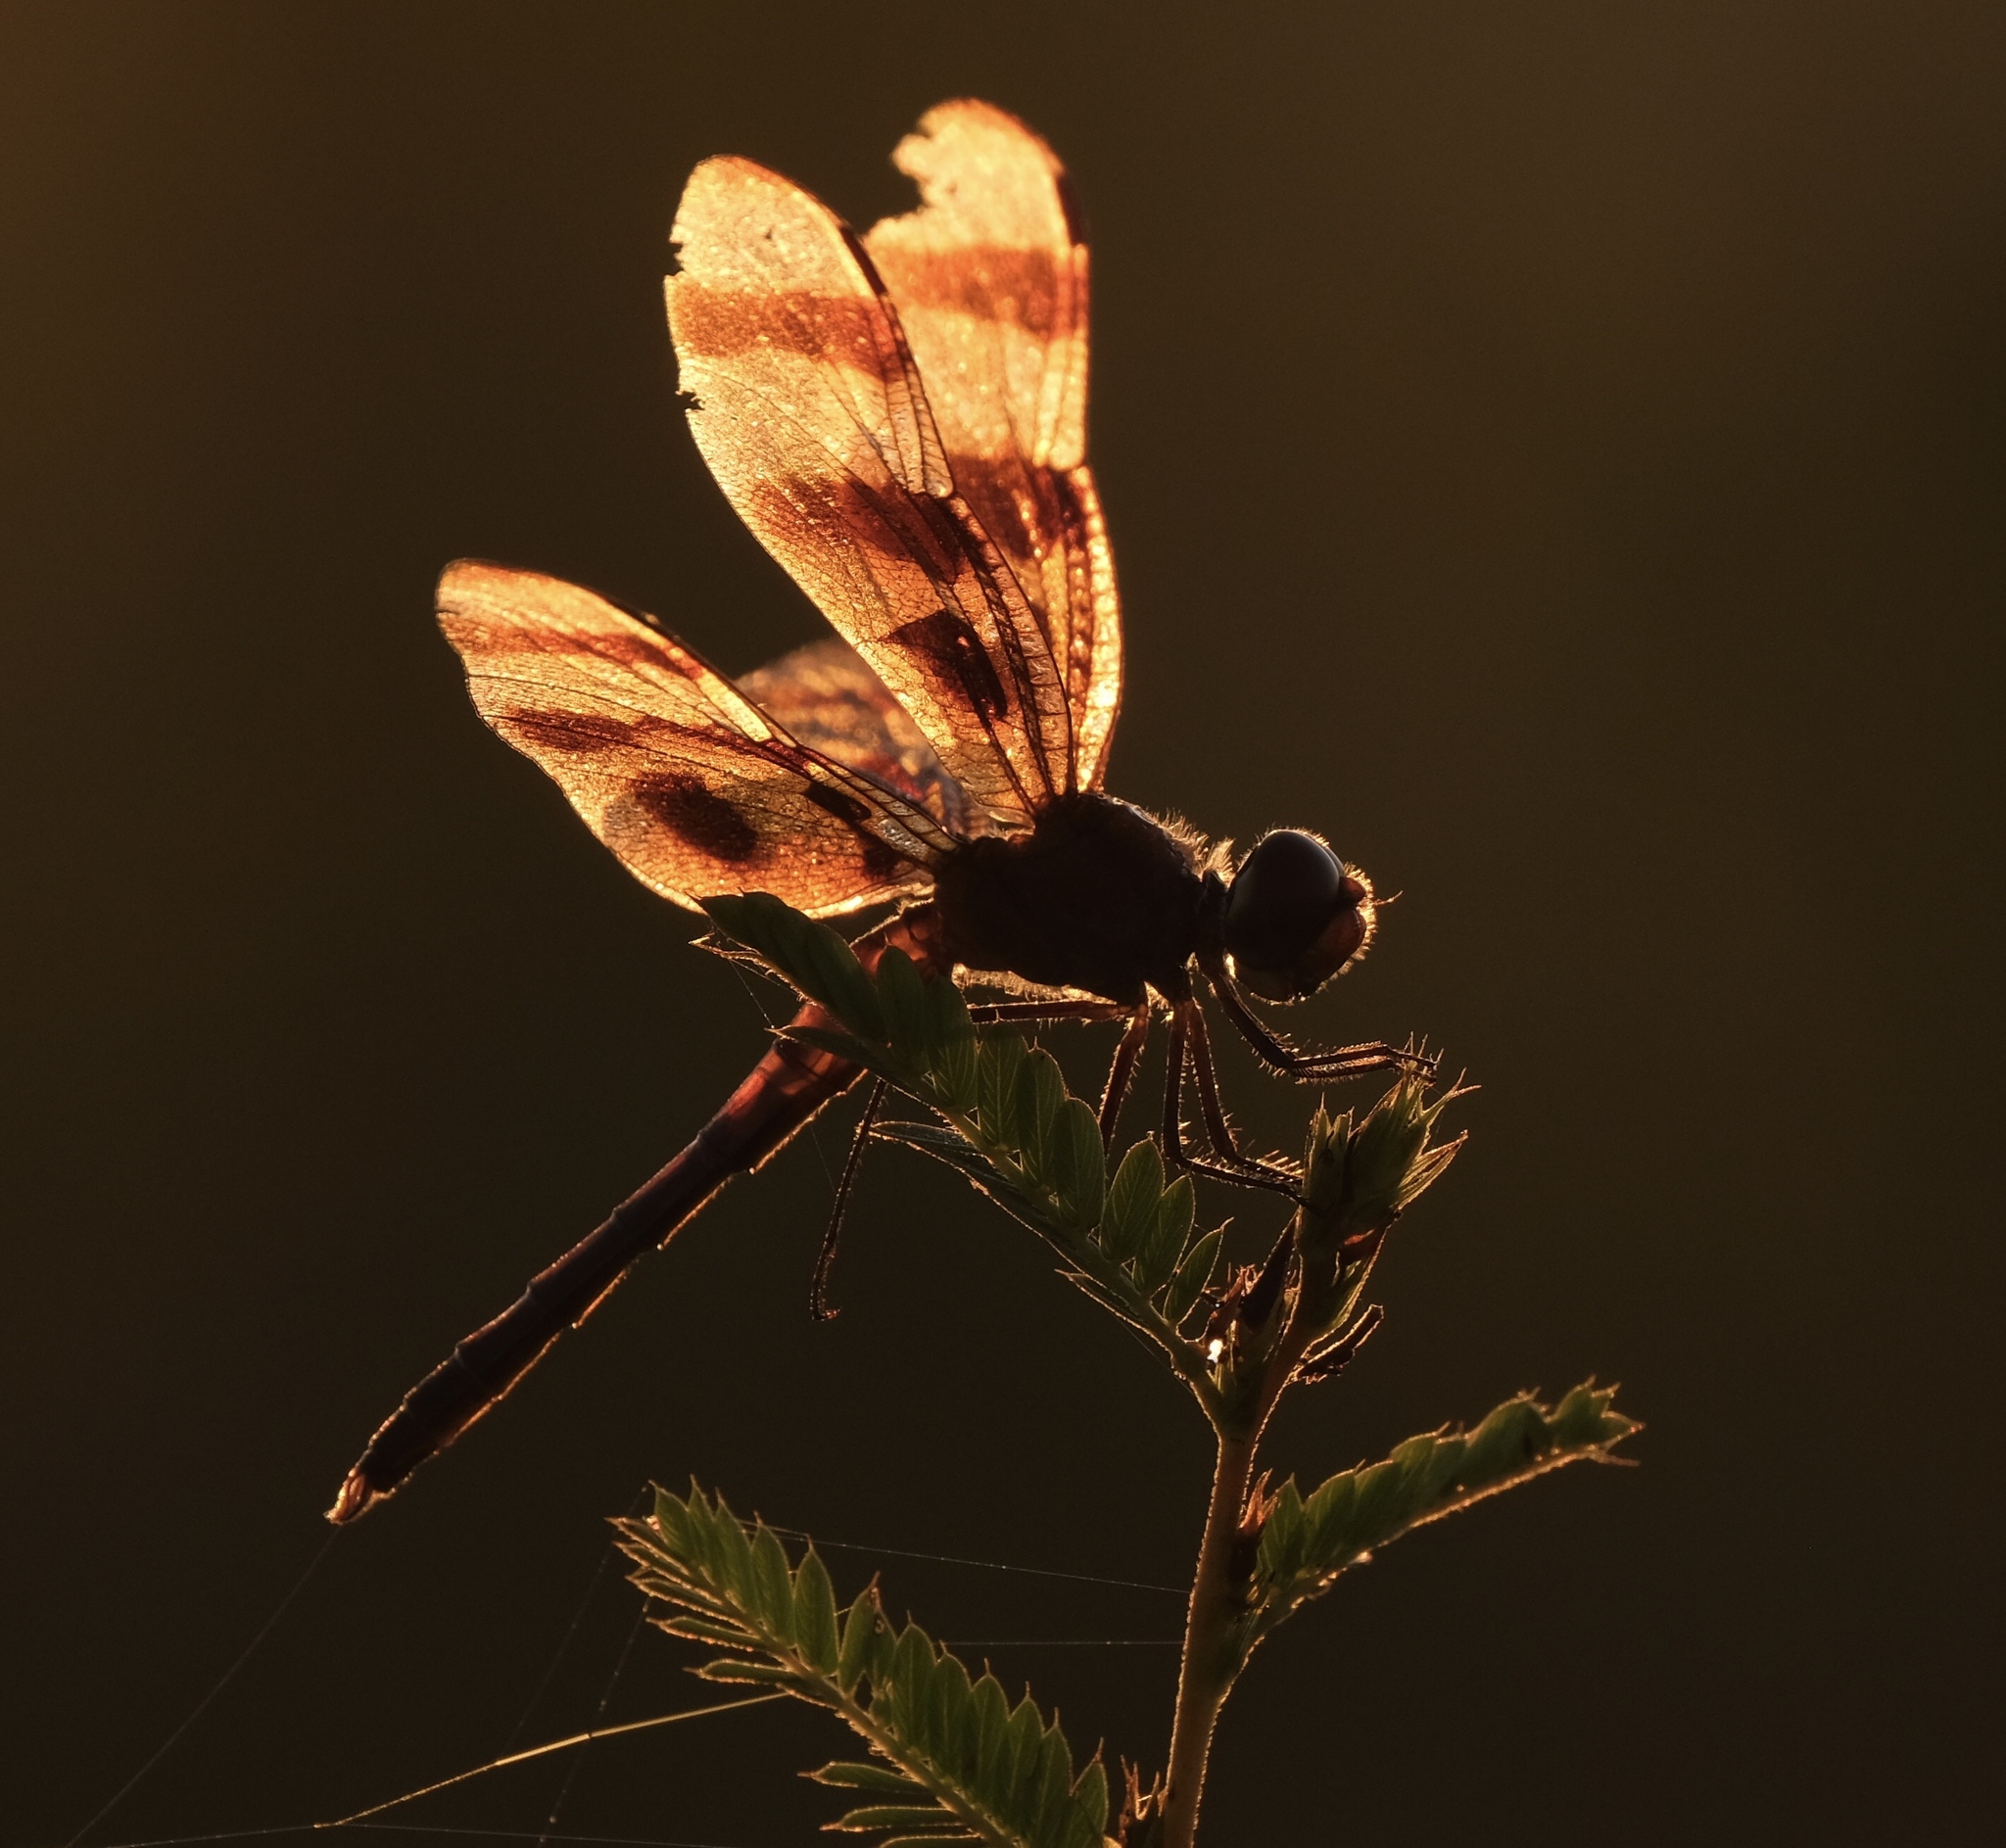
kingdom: Animalia
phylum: Arthropoda
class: Insecta
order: Odonata
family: Libellulidae
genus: Celithemis
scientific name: Celithemis eponina
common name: Halloween pennant
